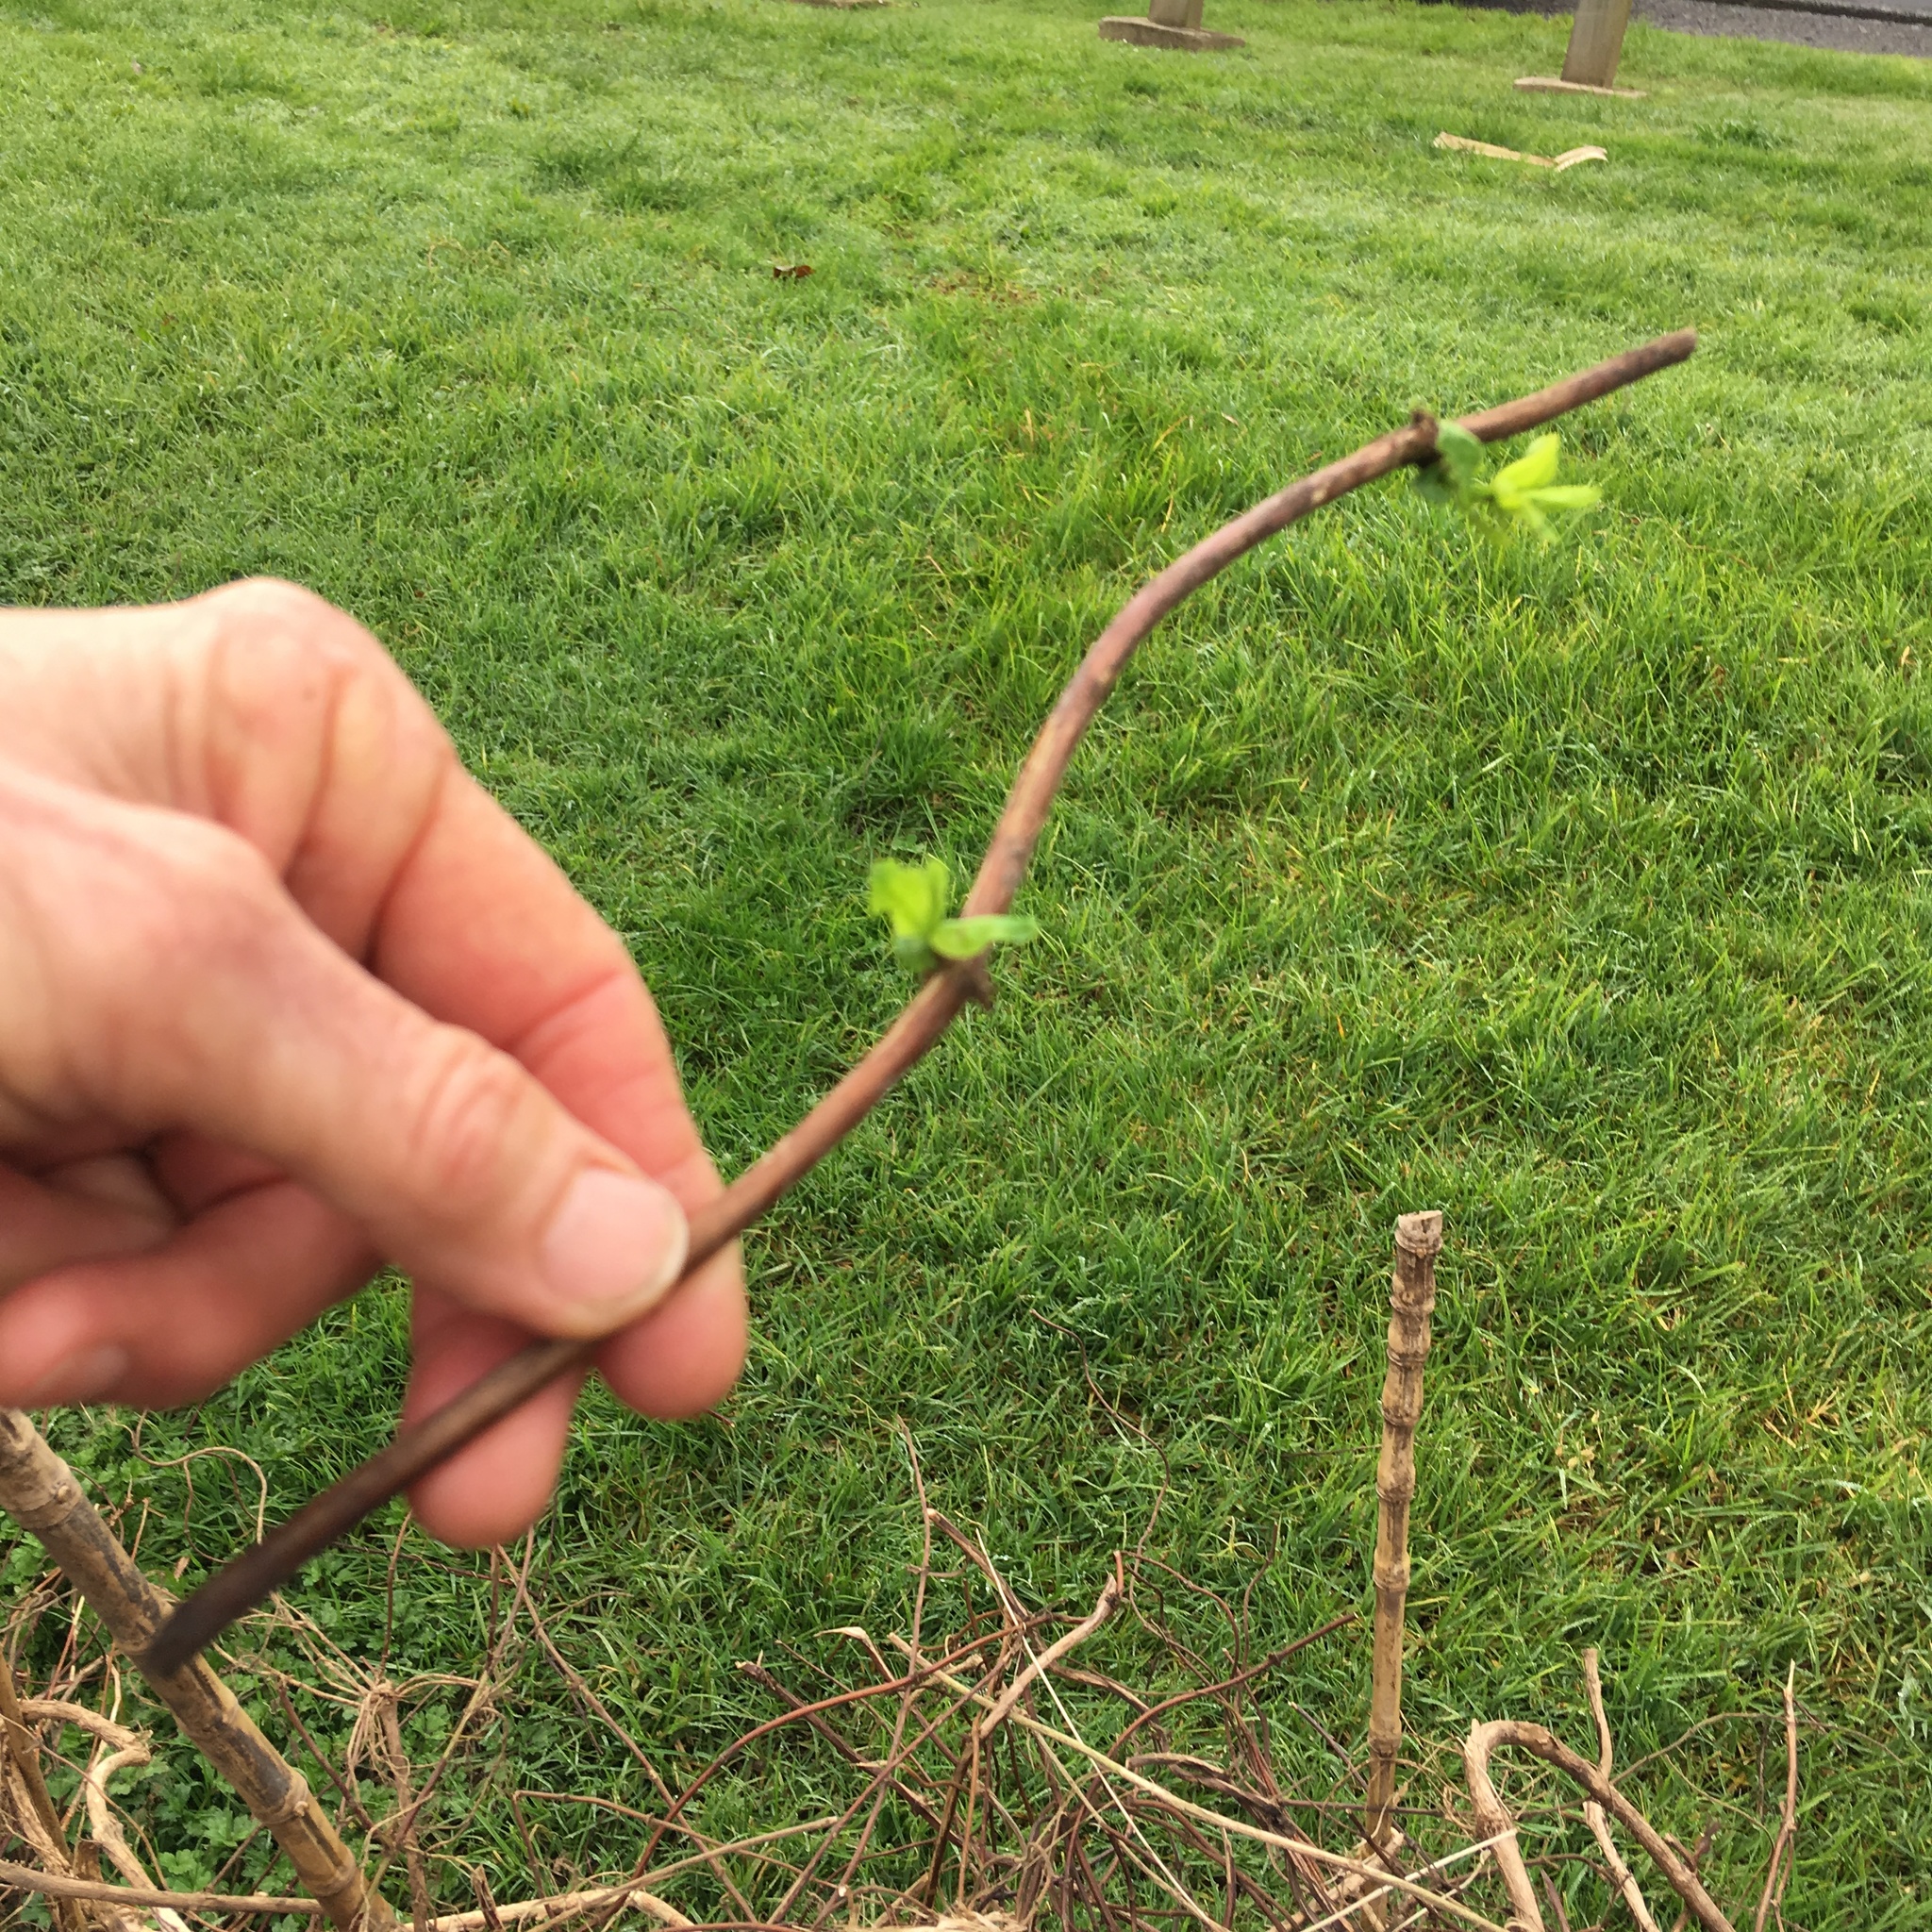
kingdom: Plantae
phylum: Tracheophyta
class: Magnoliopsida
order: Dipsacales
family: Caprifoliaceae
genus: Lonicera
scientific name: Lonicera japonica
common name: Japanese honeysuckle
